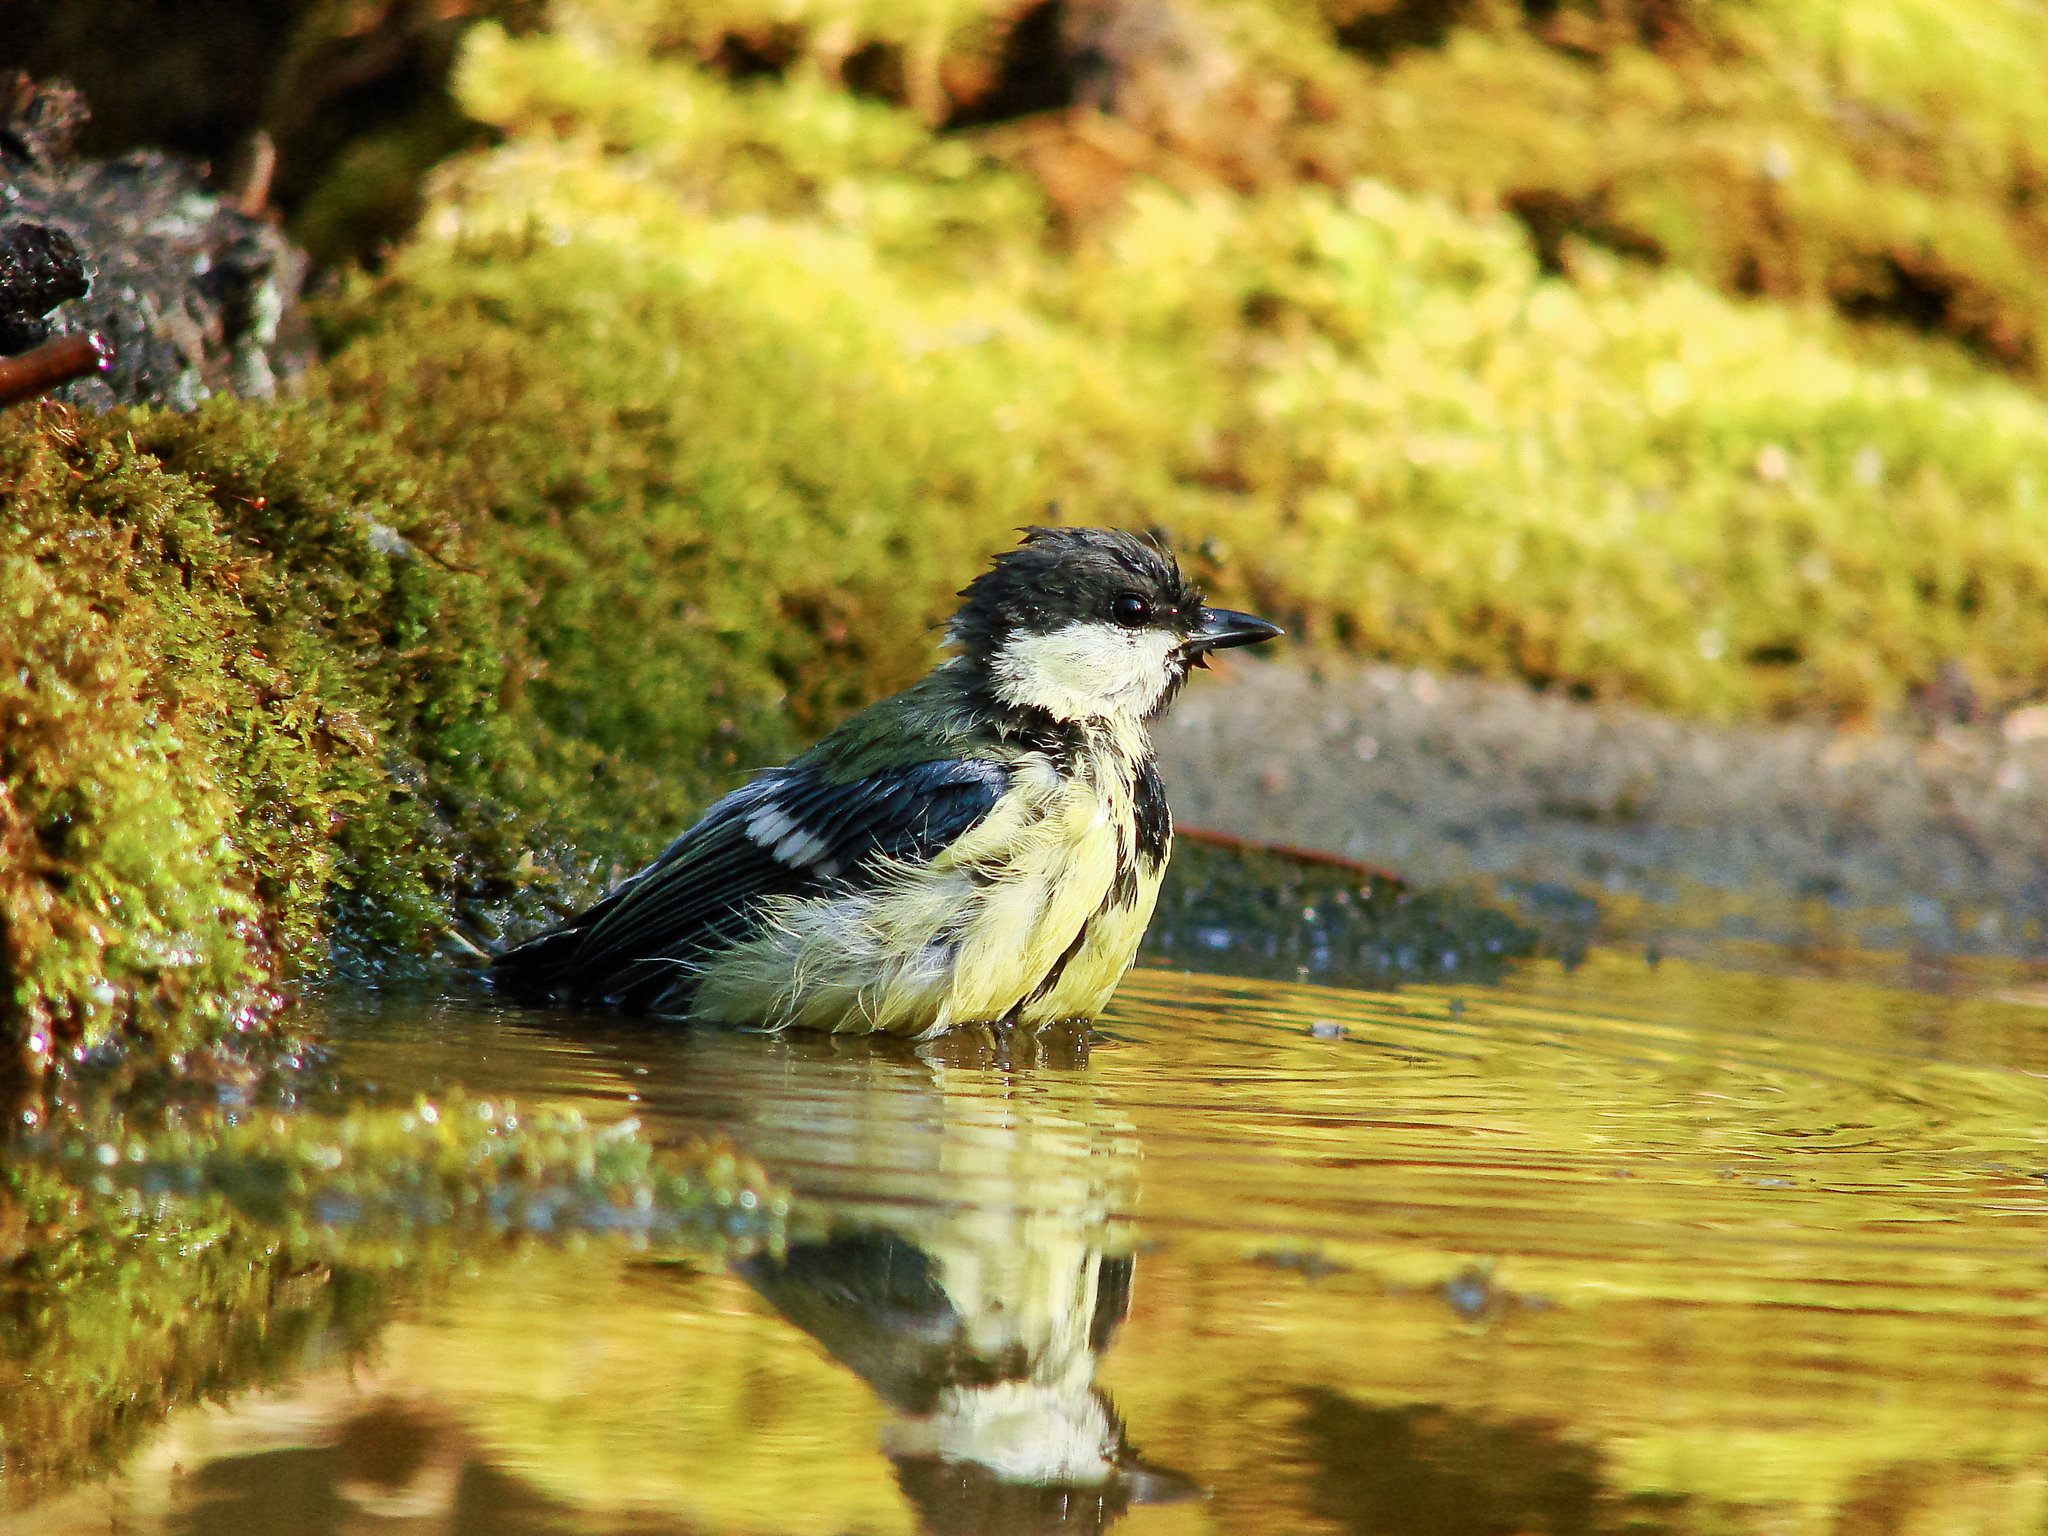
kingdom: Animalia
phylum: Chordata
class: Aves
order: Passeriformes
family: Paridae
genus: Parus
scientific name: Parus major
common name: Great tit
